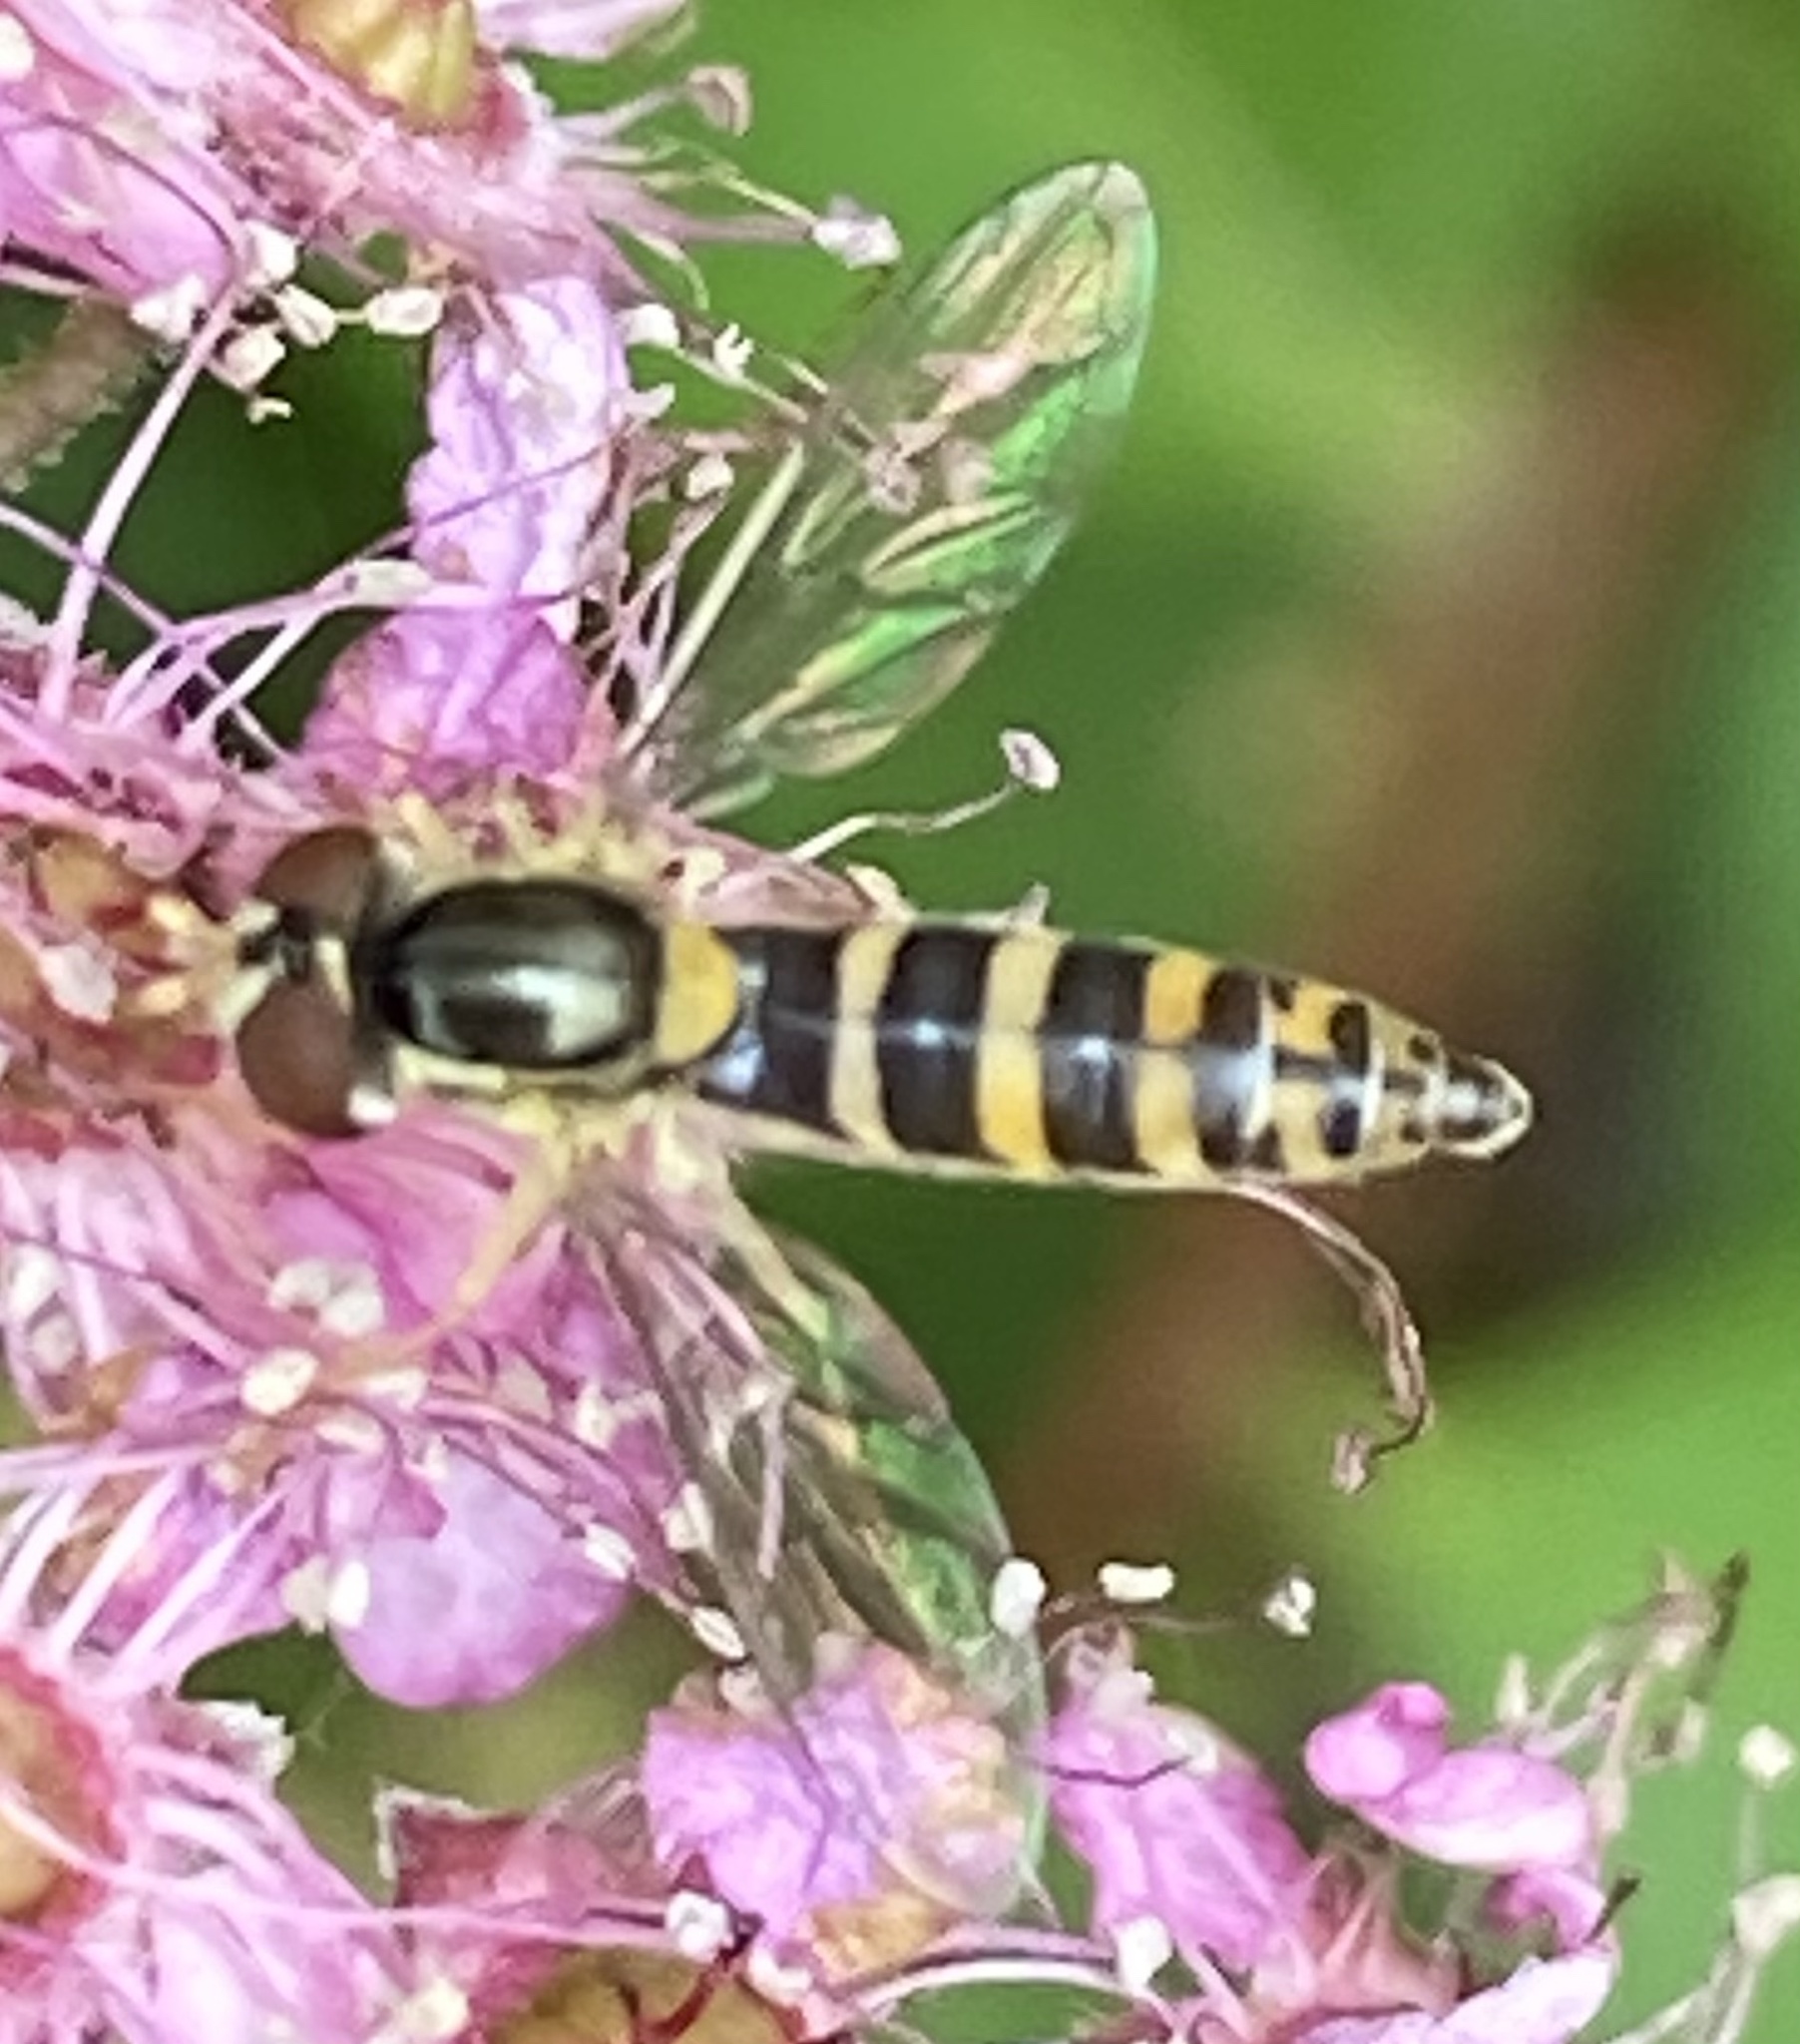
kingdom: Animalia
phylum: Arthropoda
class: Insecta
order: Diptera
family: Syrphidae
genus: Sphaerophoria
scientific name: Sphaerophoria
